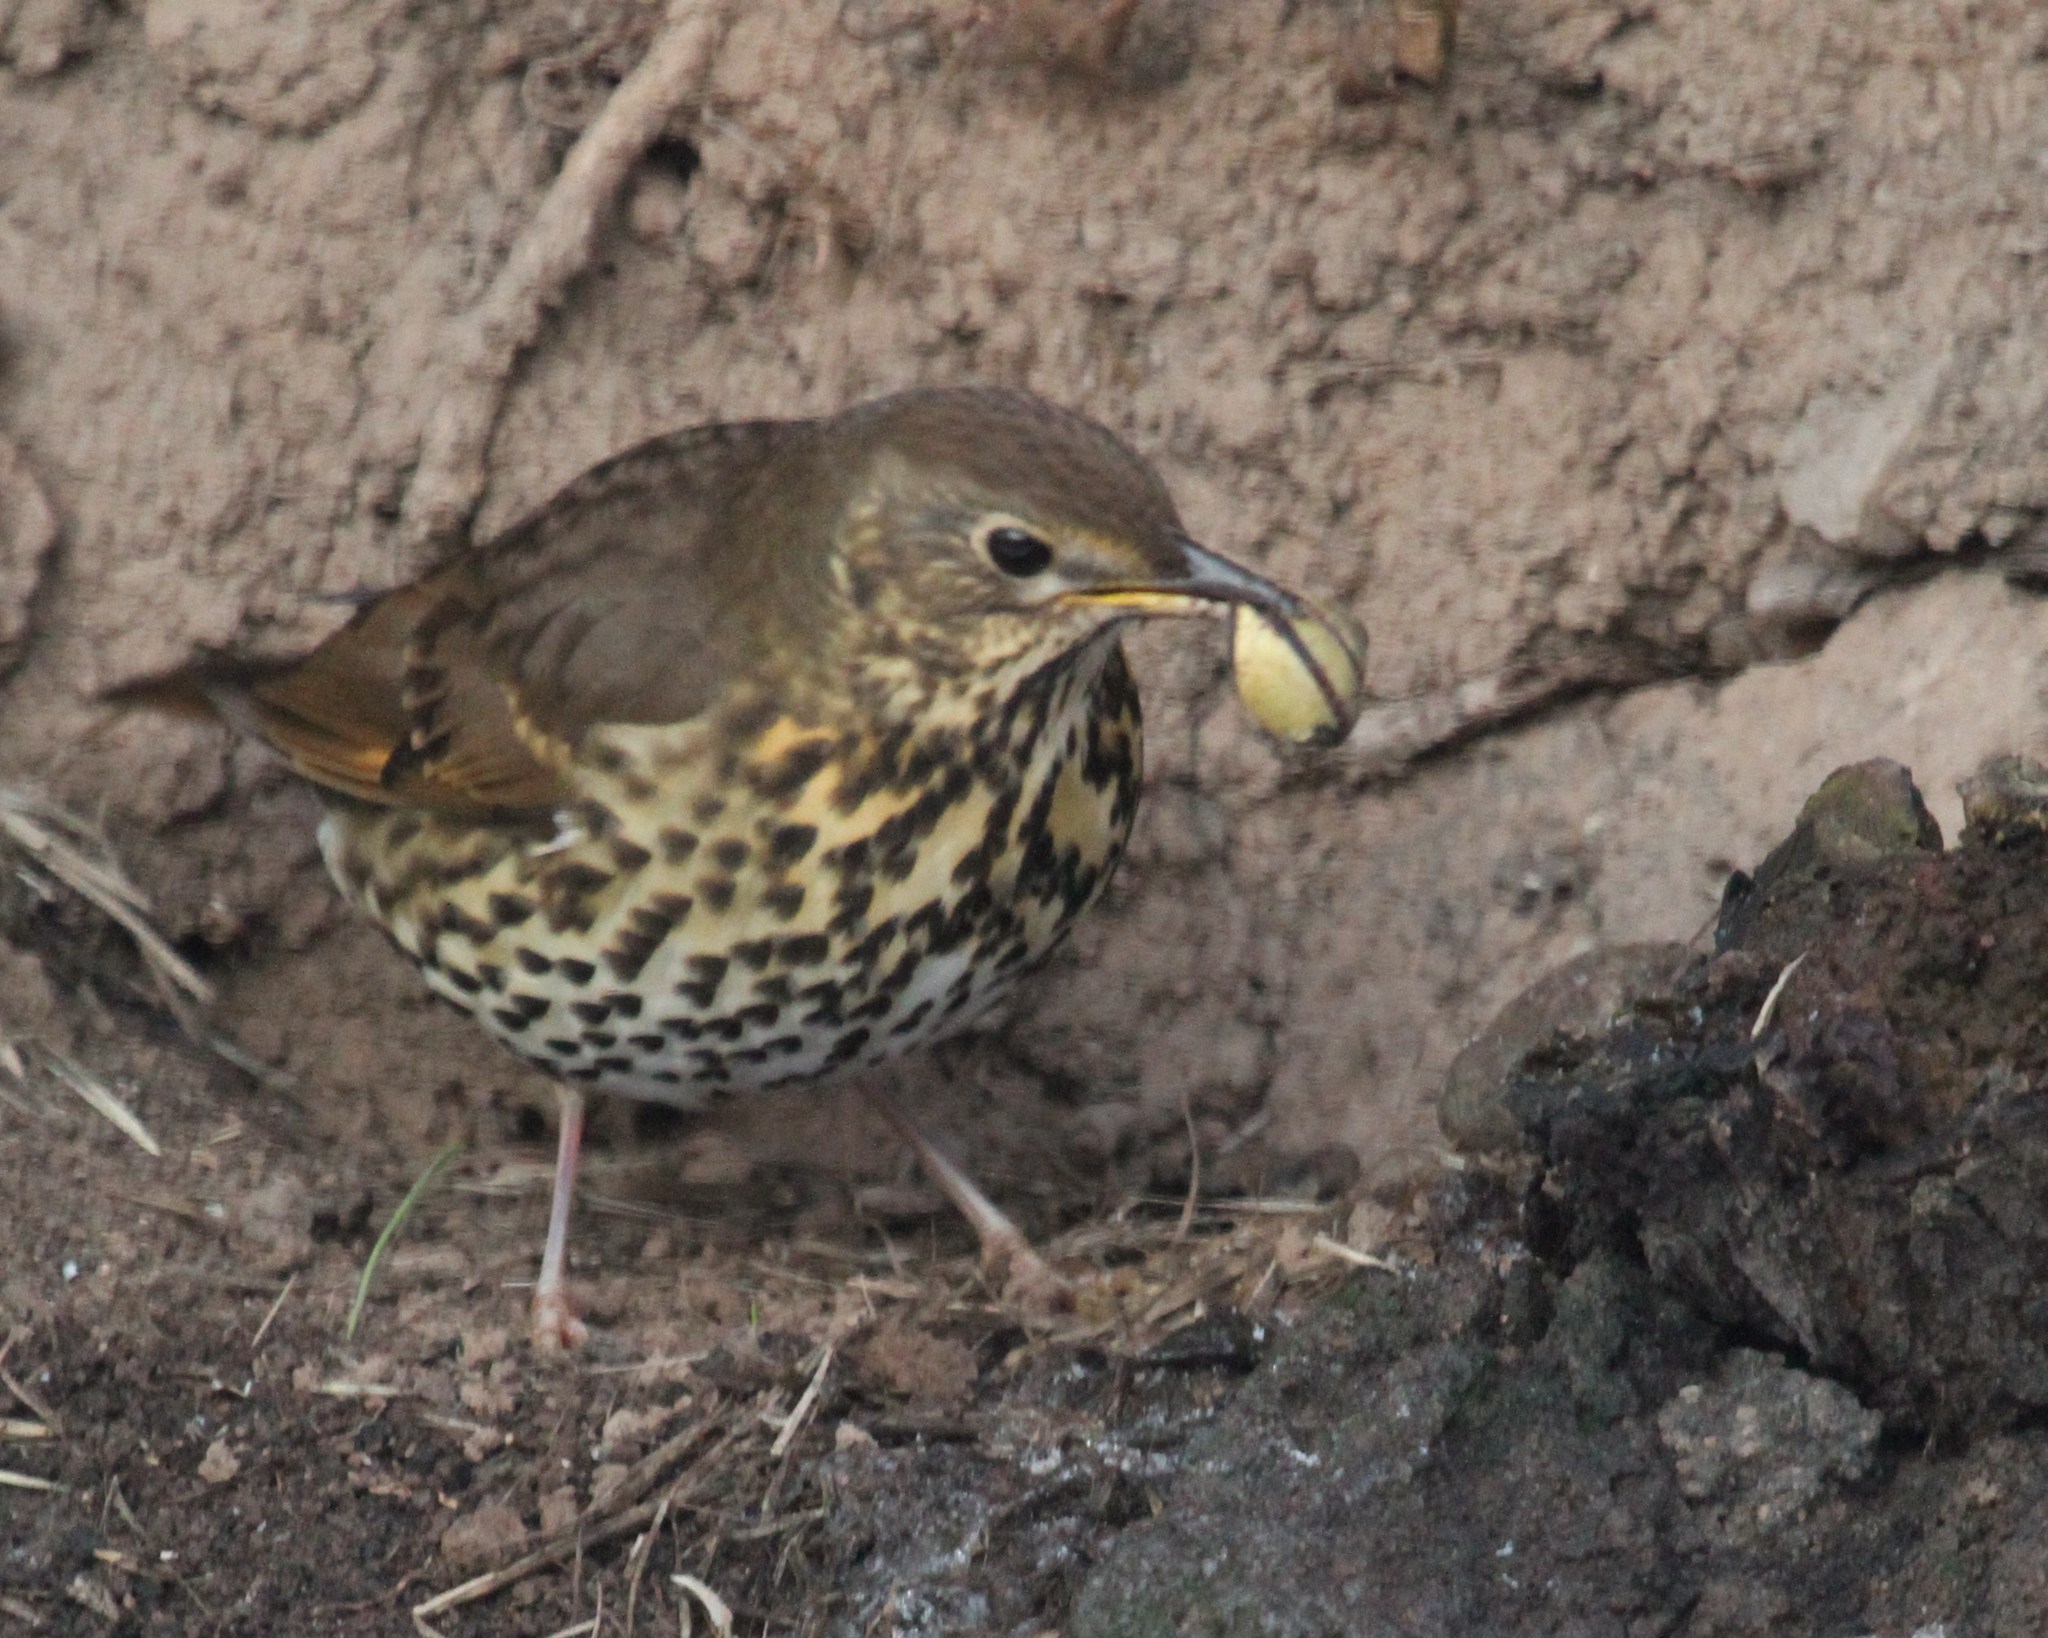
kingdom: Animalia
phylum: Chordata
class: Aves
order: Passeriformes
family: Turdidae
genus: Turdus
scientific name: Turdus philomelos
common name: Song thrush
